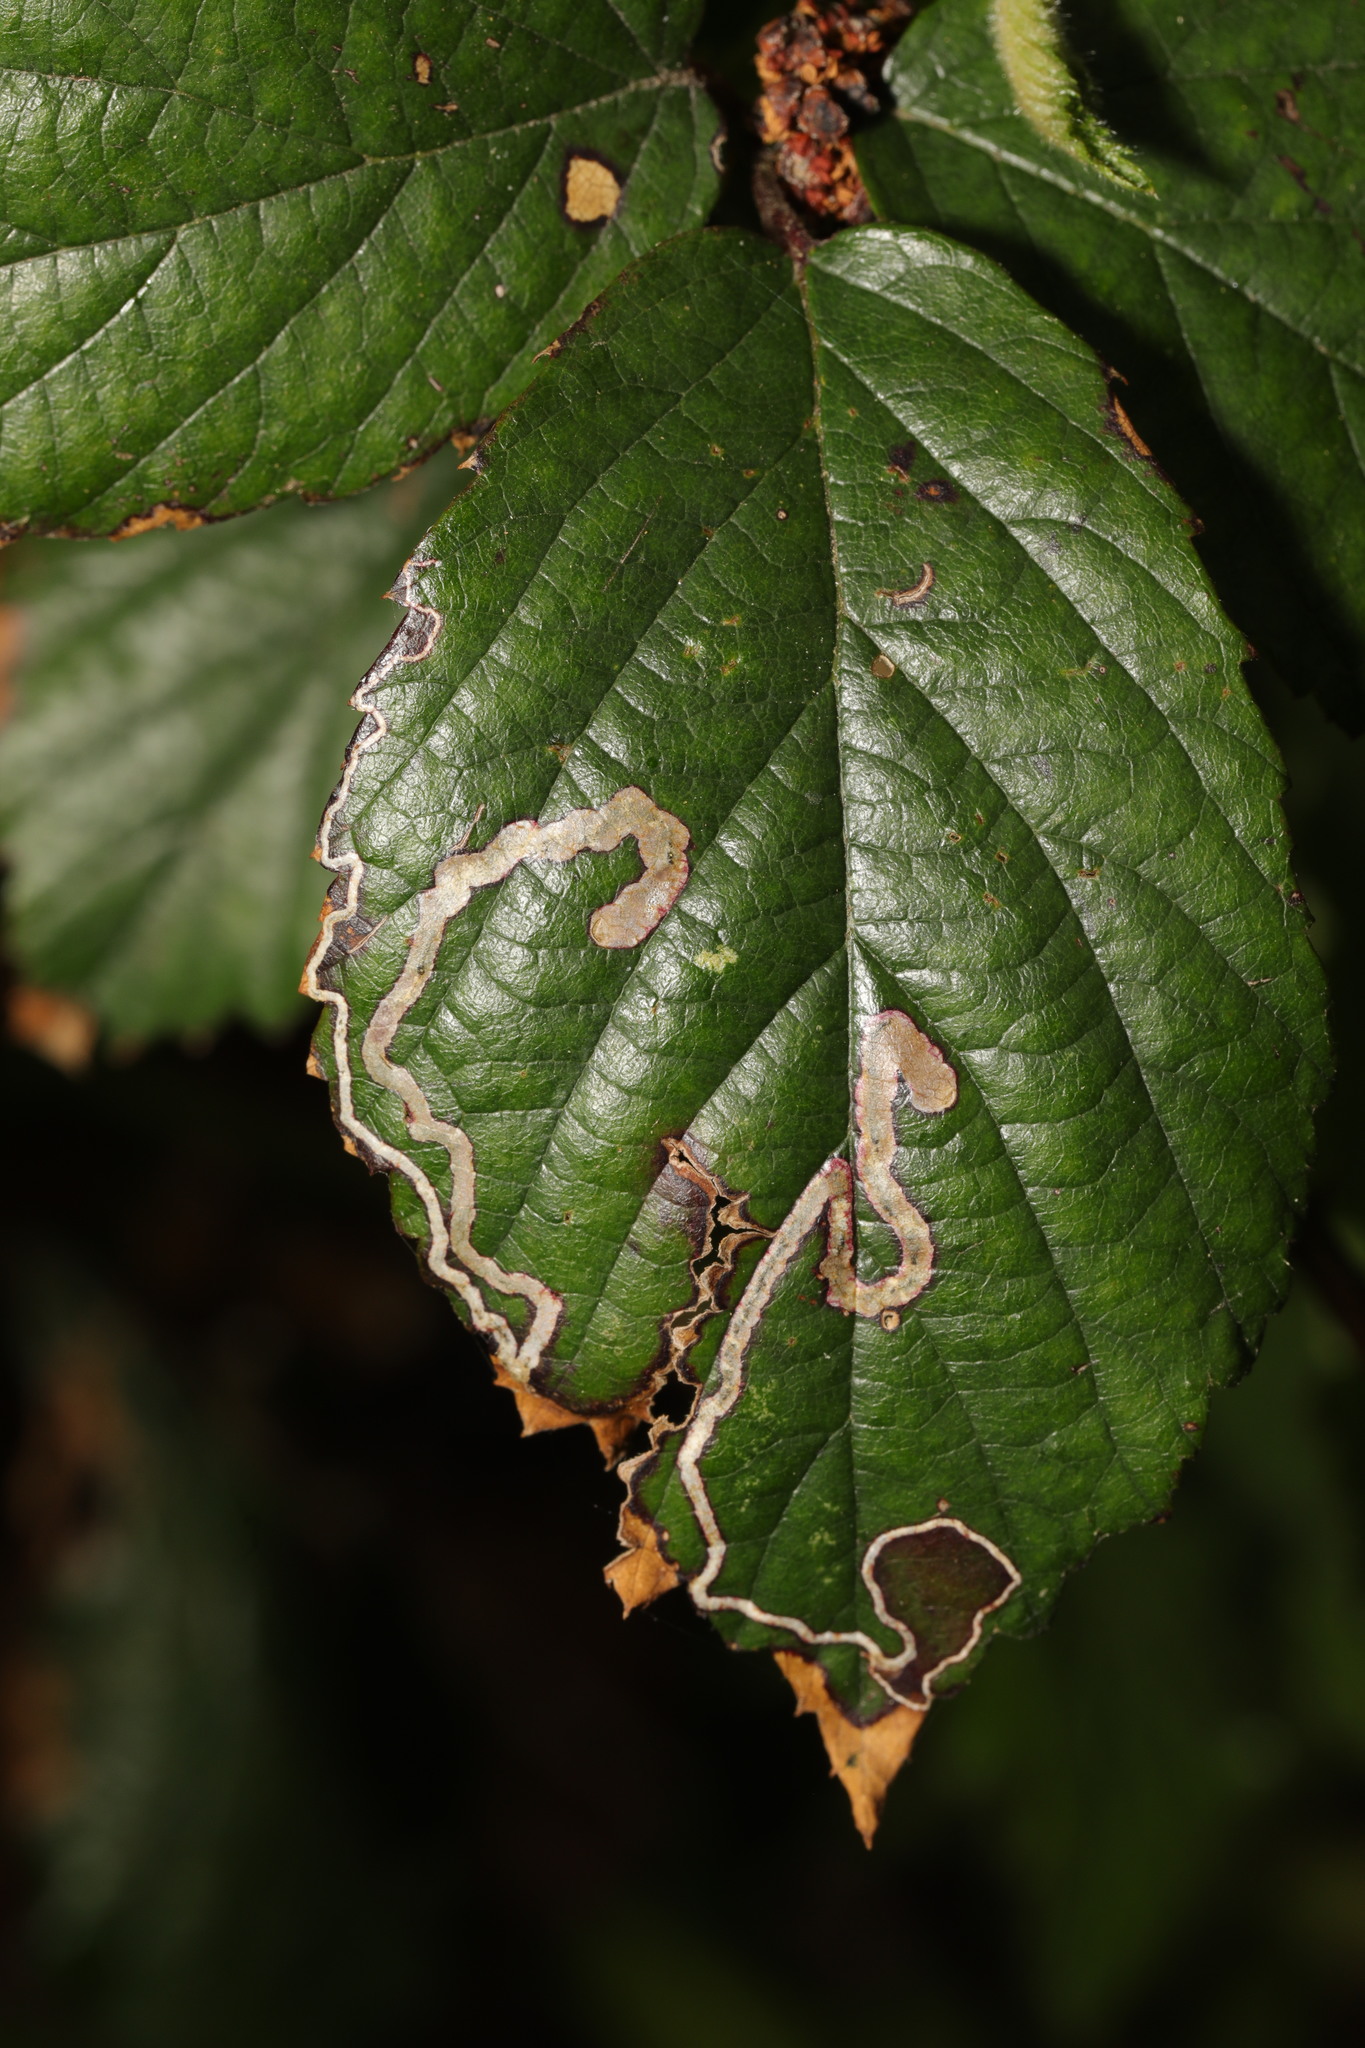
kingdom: Animalia
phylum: Arthropoda
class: Insecta
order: Lepidoptera
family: Nepticulidae
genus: Stigmella
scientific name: Stigmella aurella
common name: Golden pigmy
